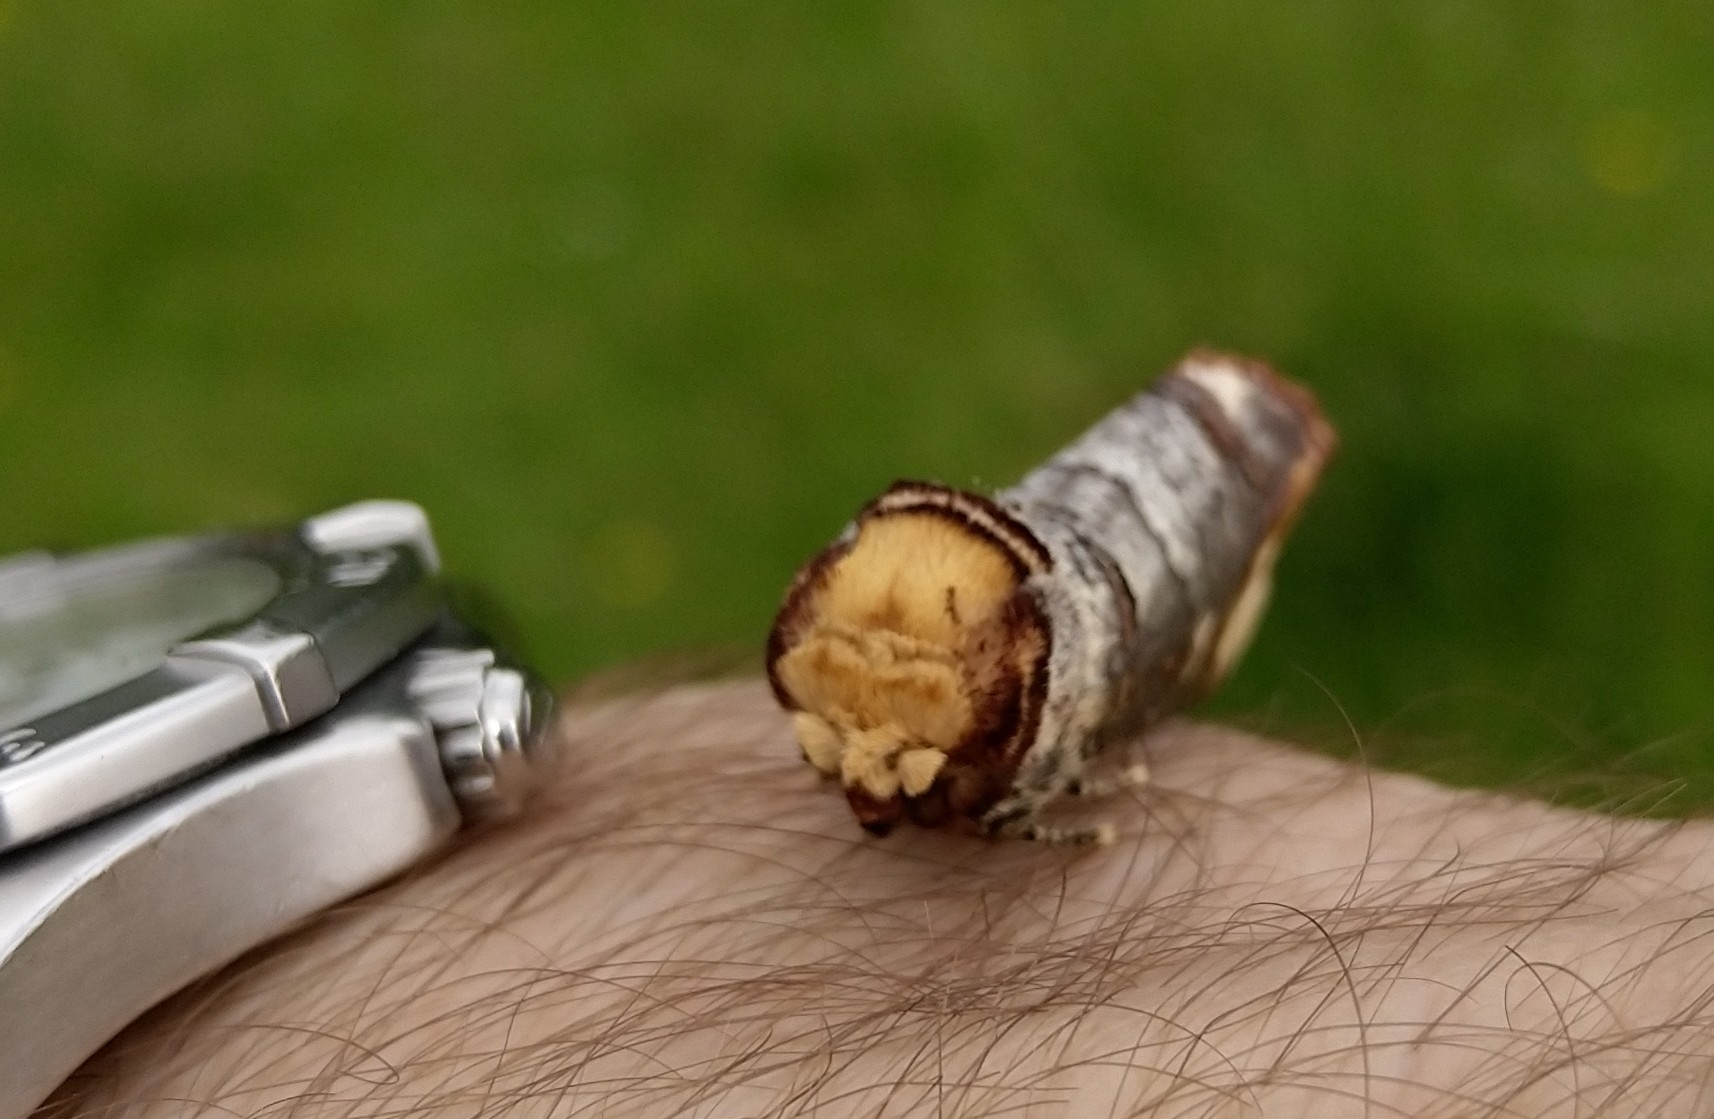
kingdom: Animalia
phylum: Arthropoda
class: Insecta
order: Lepidoptera
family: Notodontidae
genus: Phalera
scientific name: Phalera bucephala
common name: Buff-tip
